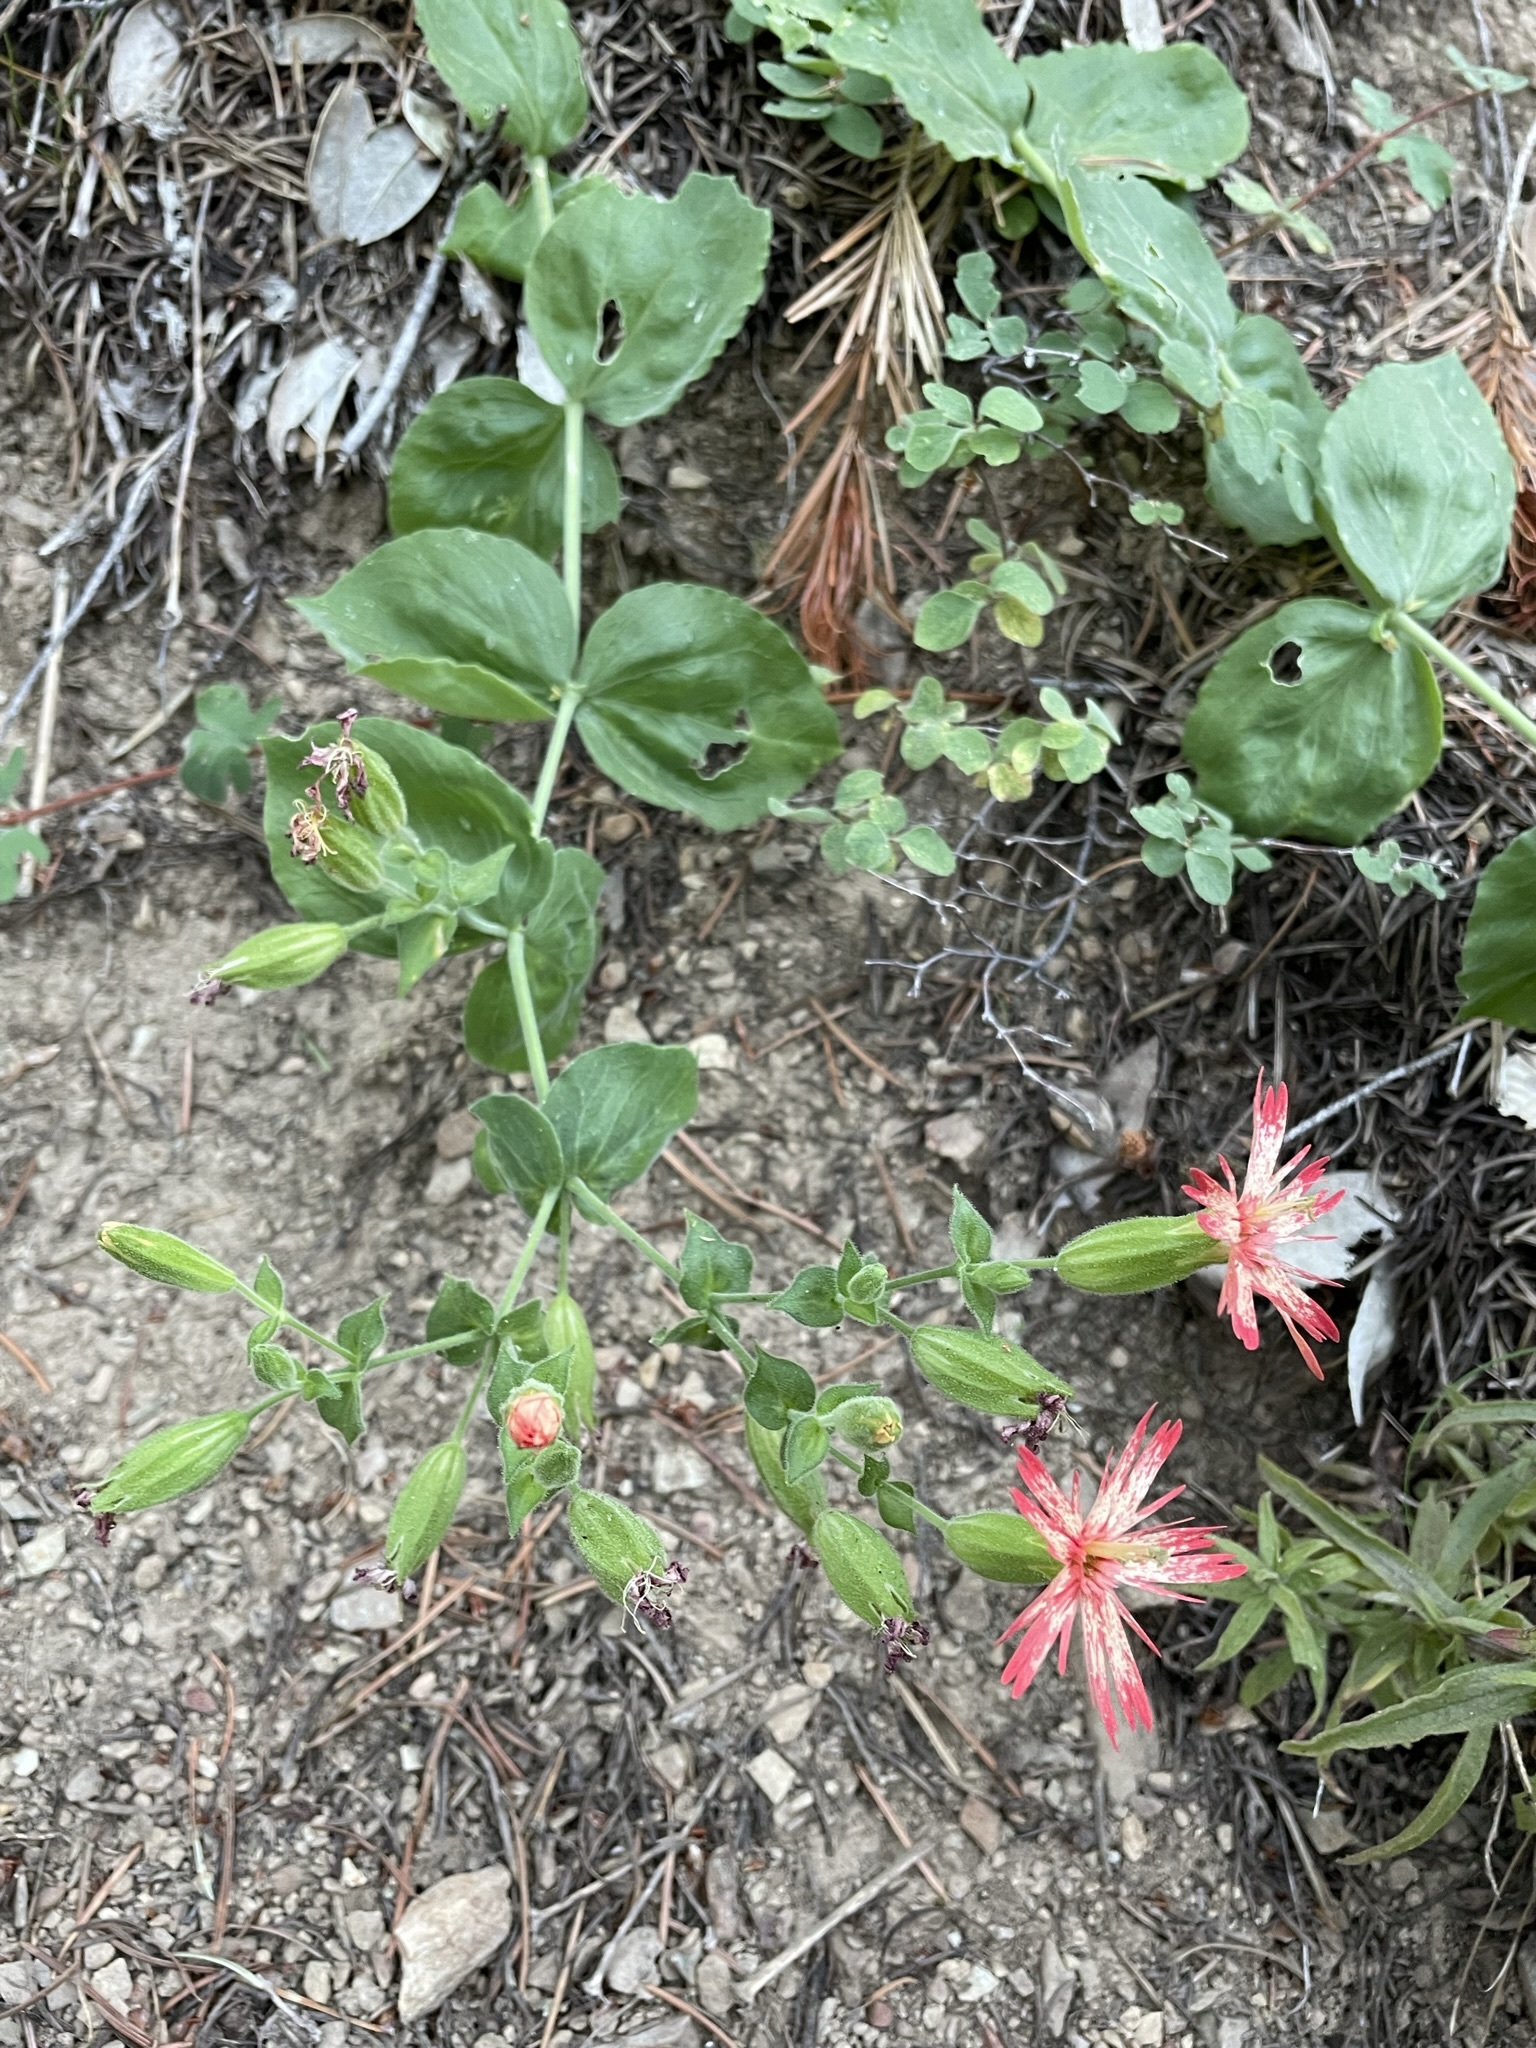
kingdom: Plantae
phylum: Tracheophyta
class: Magnoliopsida
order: Caryophyllales
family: Caryophyllaceae
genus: Silene
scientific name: Silene laciniata
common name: Indian-pink
